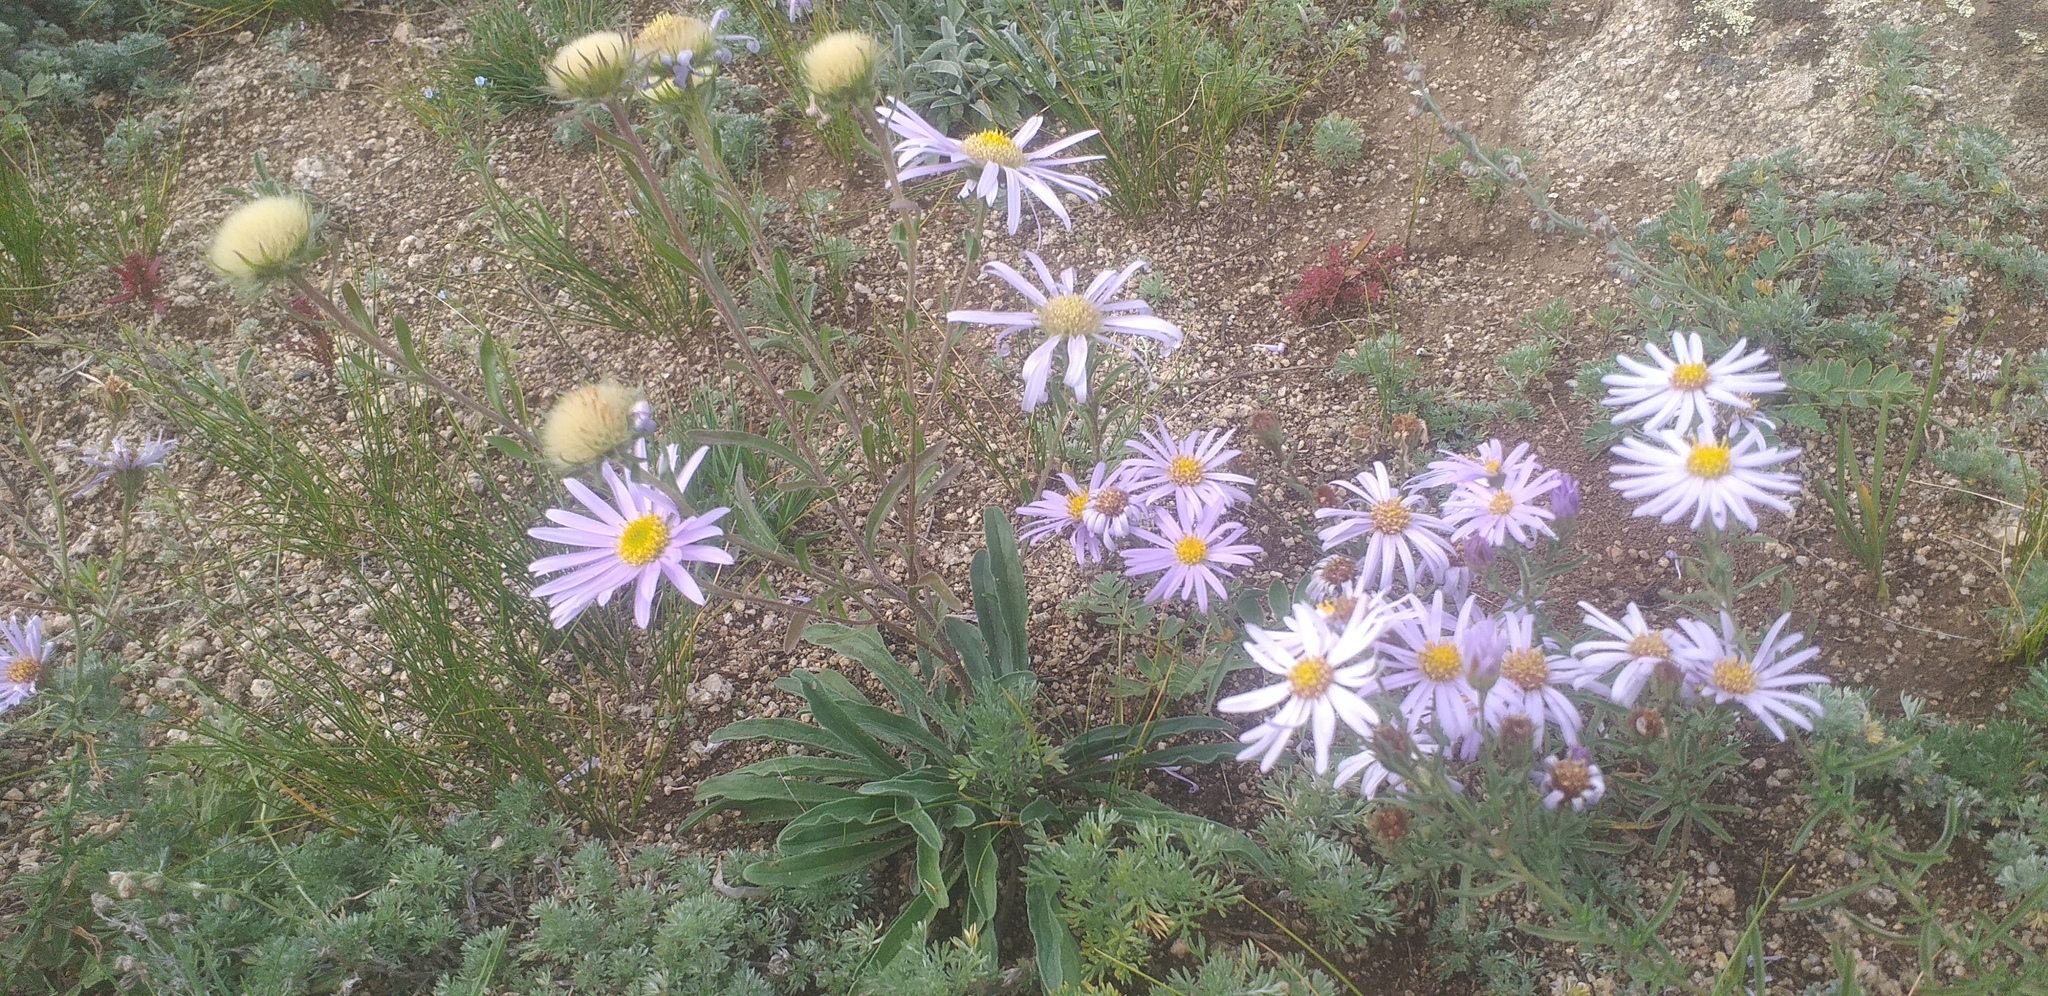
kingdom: Plantae
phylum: Tracheophyta
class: Magnoliopsida
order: Asterales
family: Asteraceae
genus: Aster
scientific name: Aster alpinus
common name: Alpine aster
